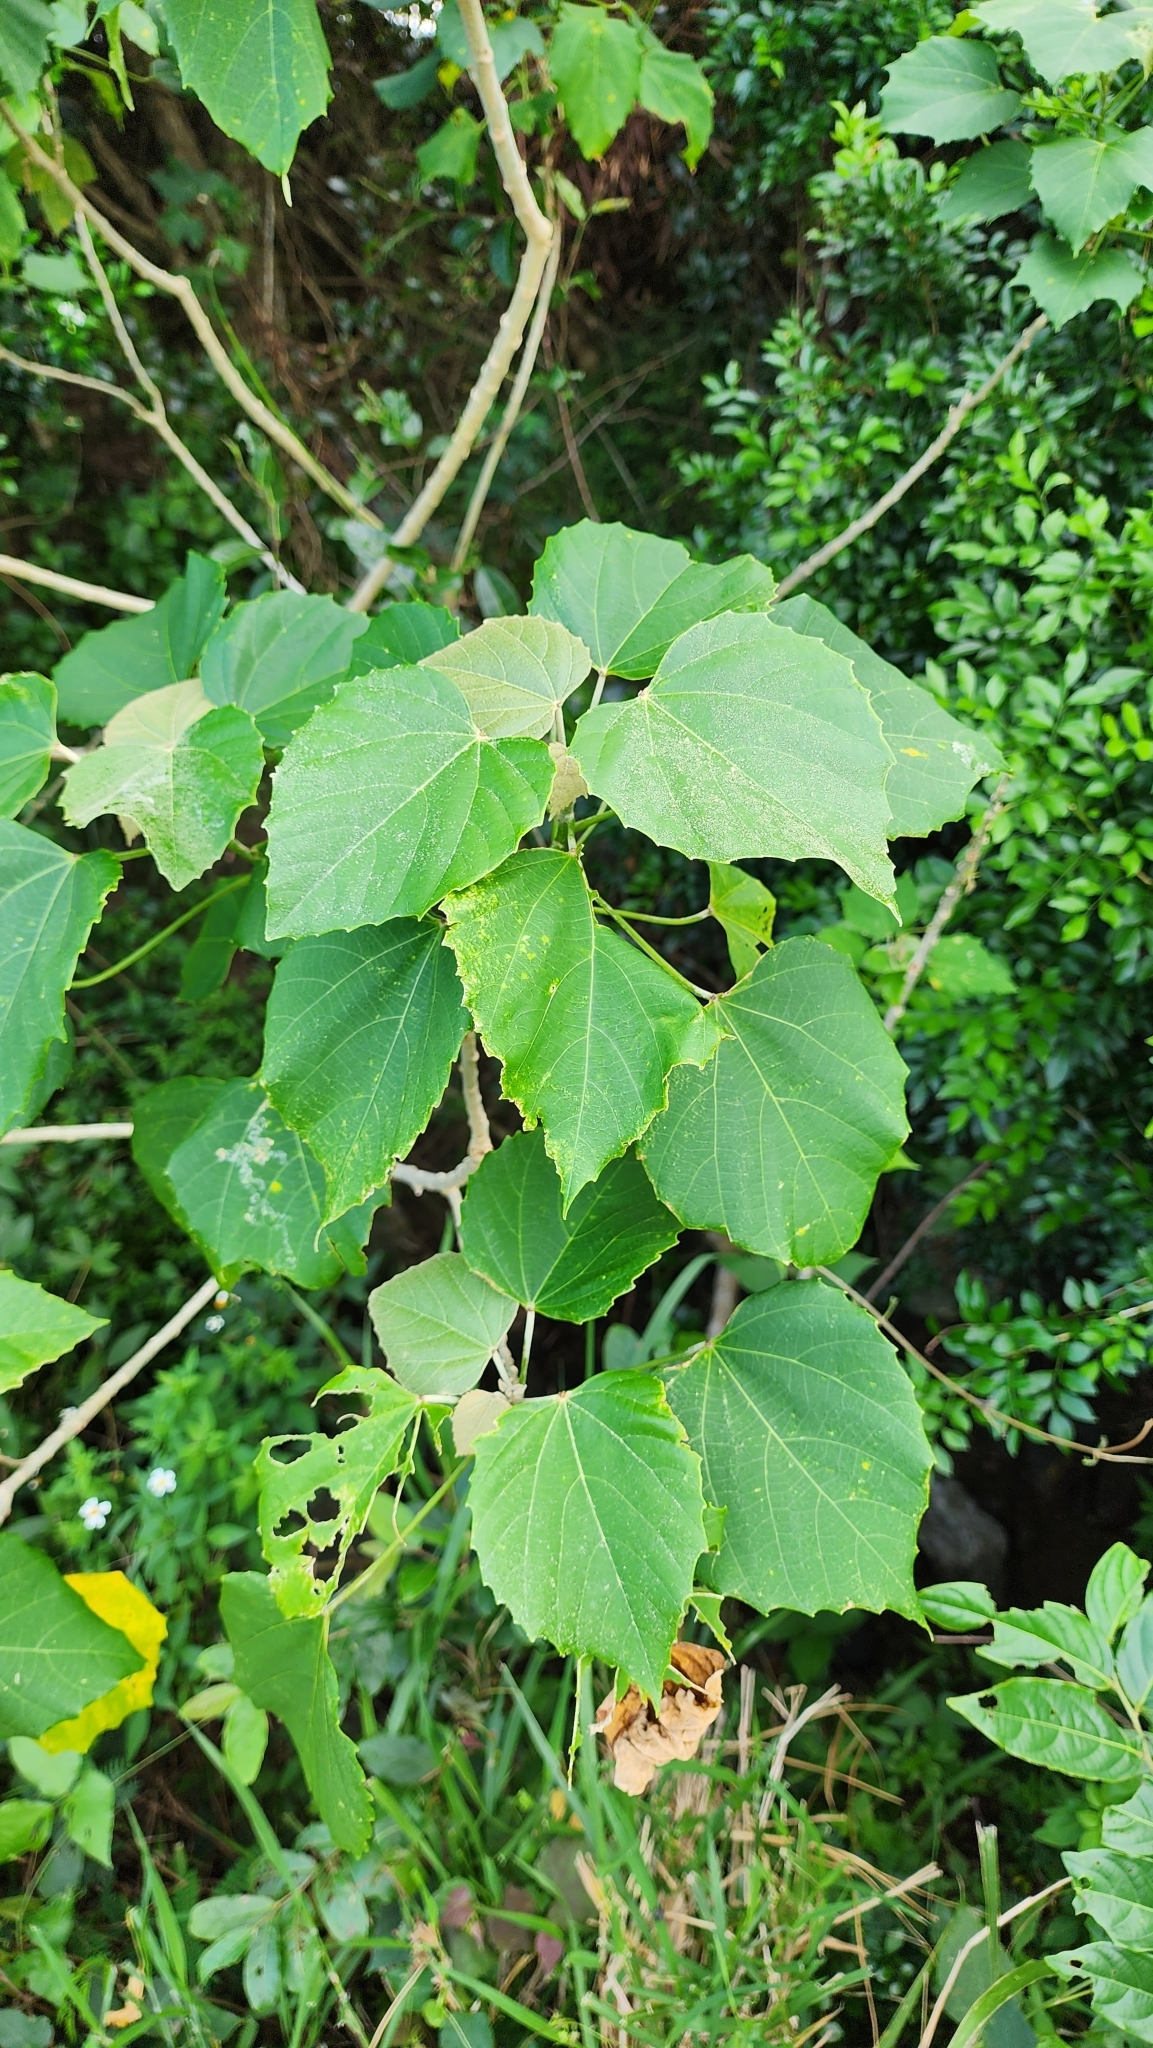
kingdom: Plantae
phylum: Tracheophyta
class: Magnoliopsida
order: Malpighiales
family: Euphorbiaceae
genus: Melanolepis
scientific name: Melanolepis multiglandulosa
